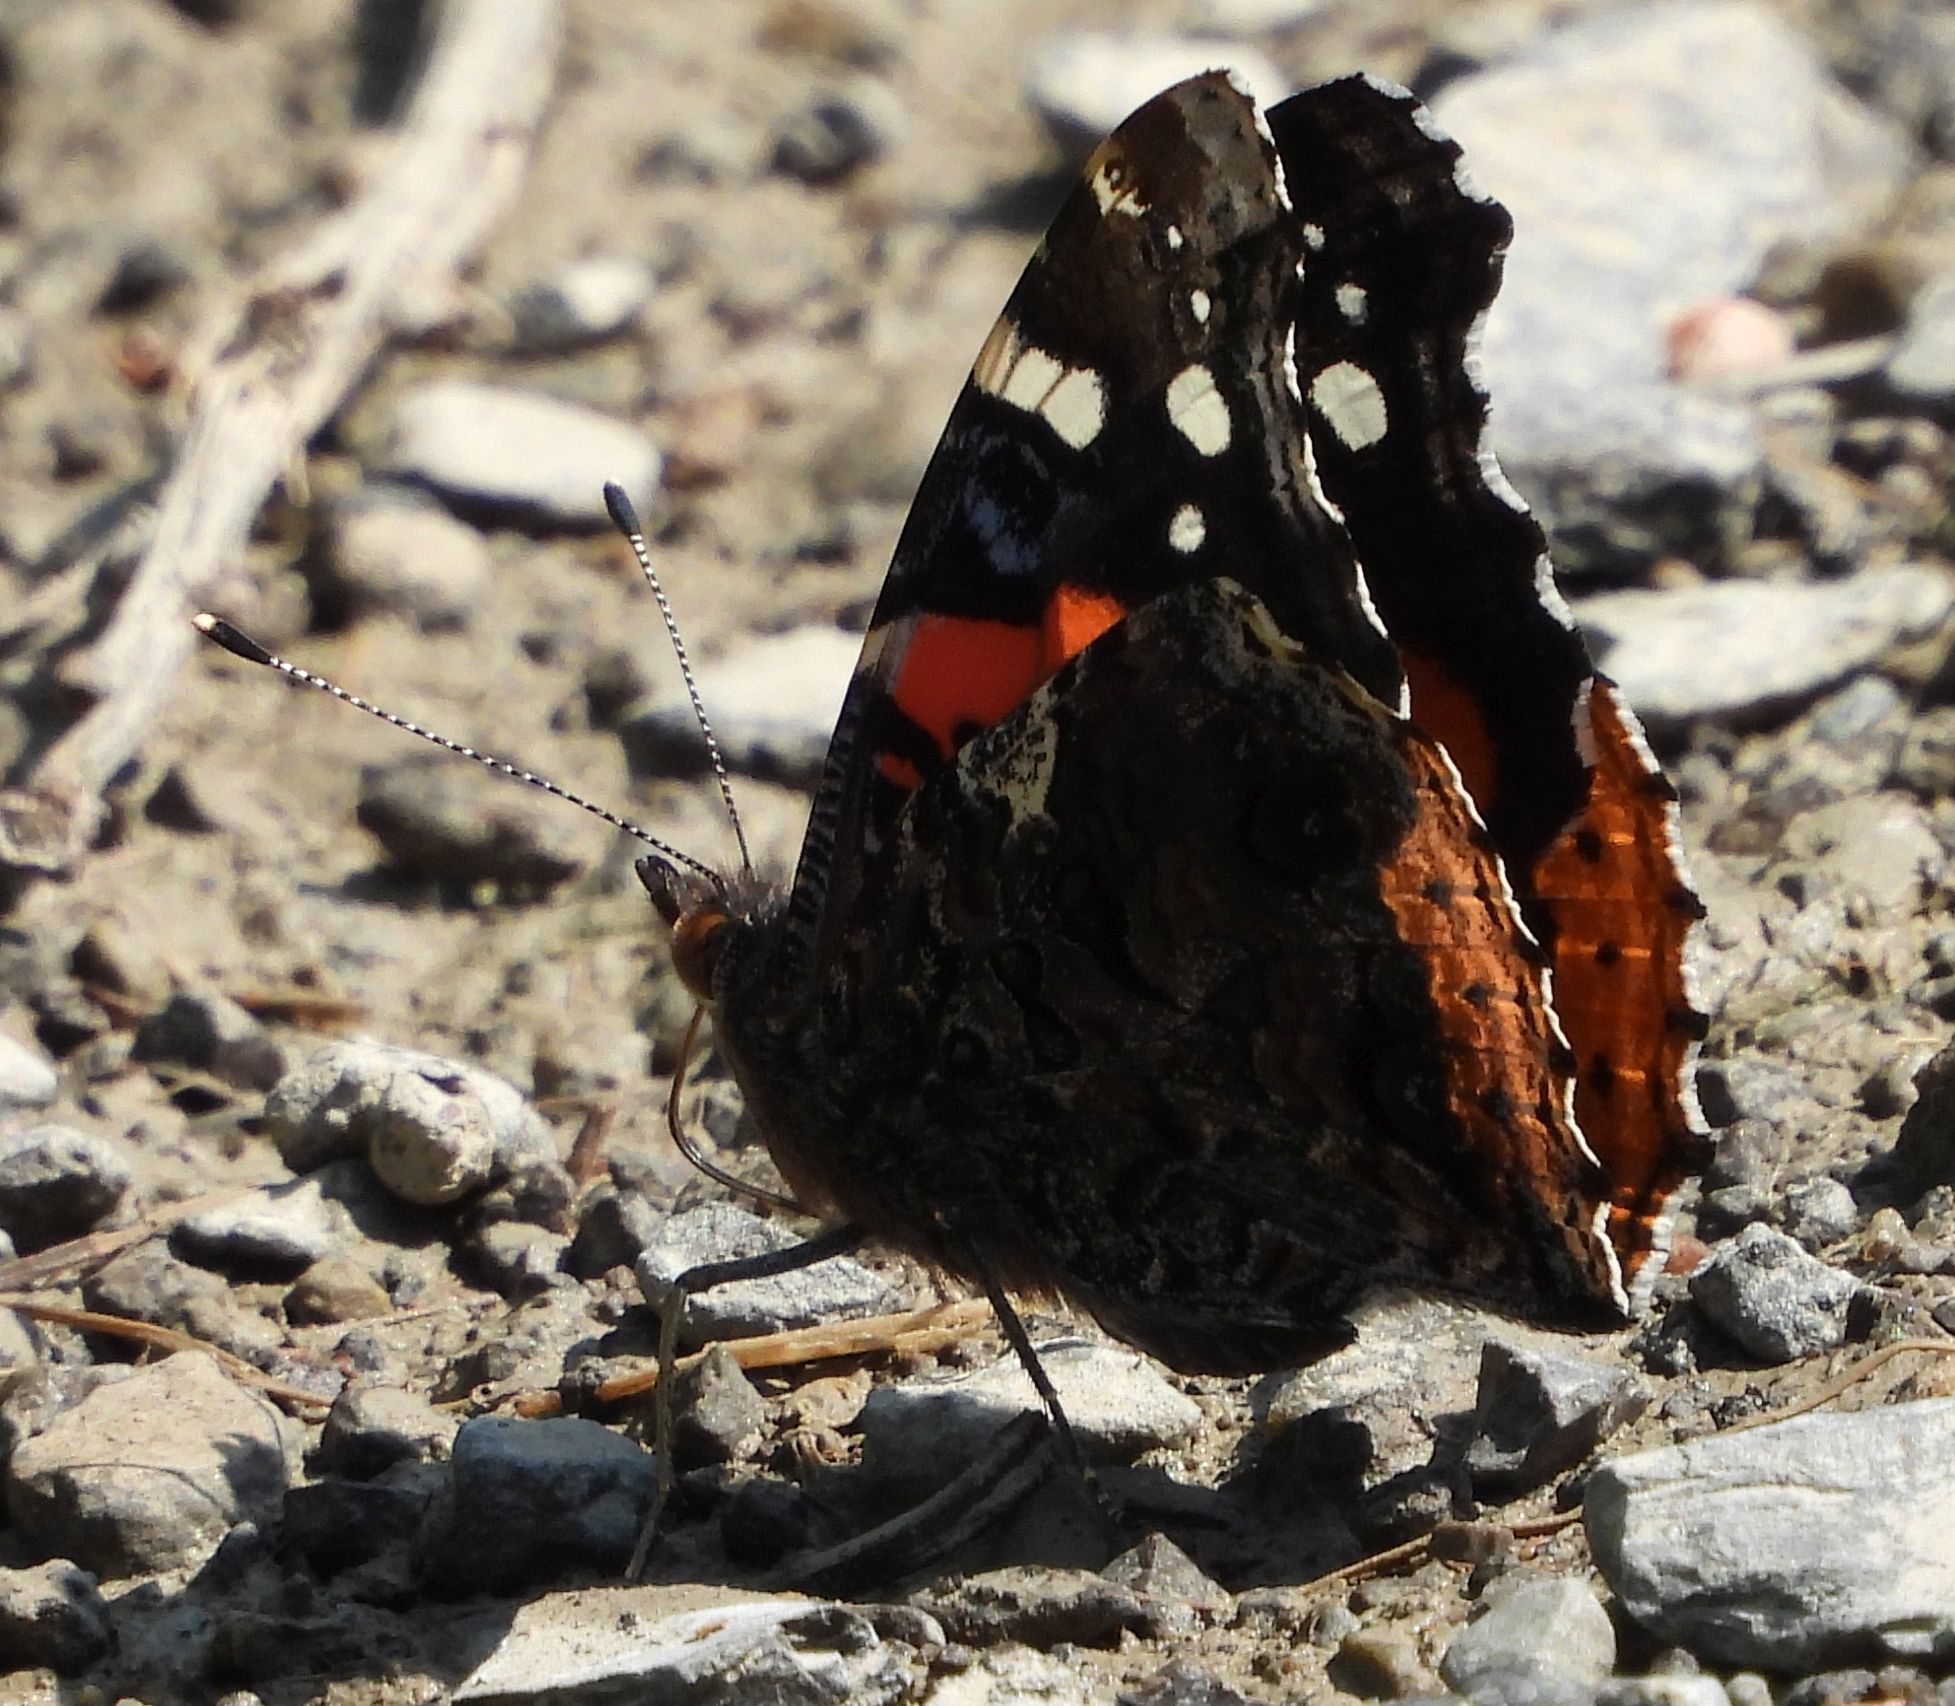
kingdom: Animalia
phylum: Arthropoda
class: Insecta
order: Lepidoptera
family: Nymphalidae
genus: Vanessa
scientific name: Vanessa atalanta
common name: Red admiral
